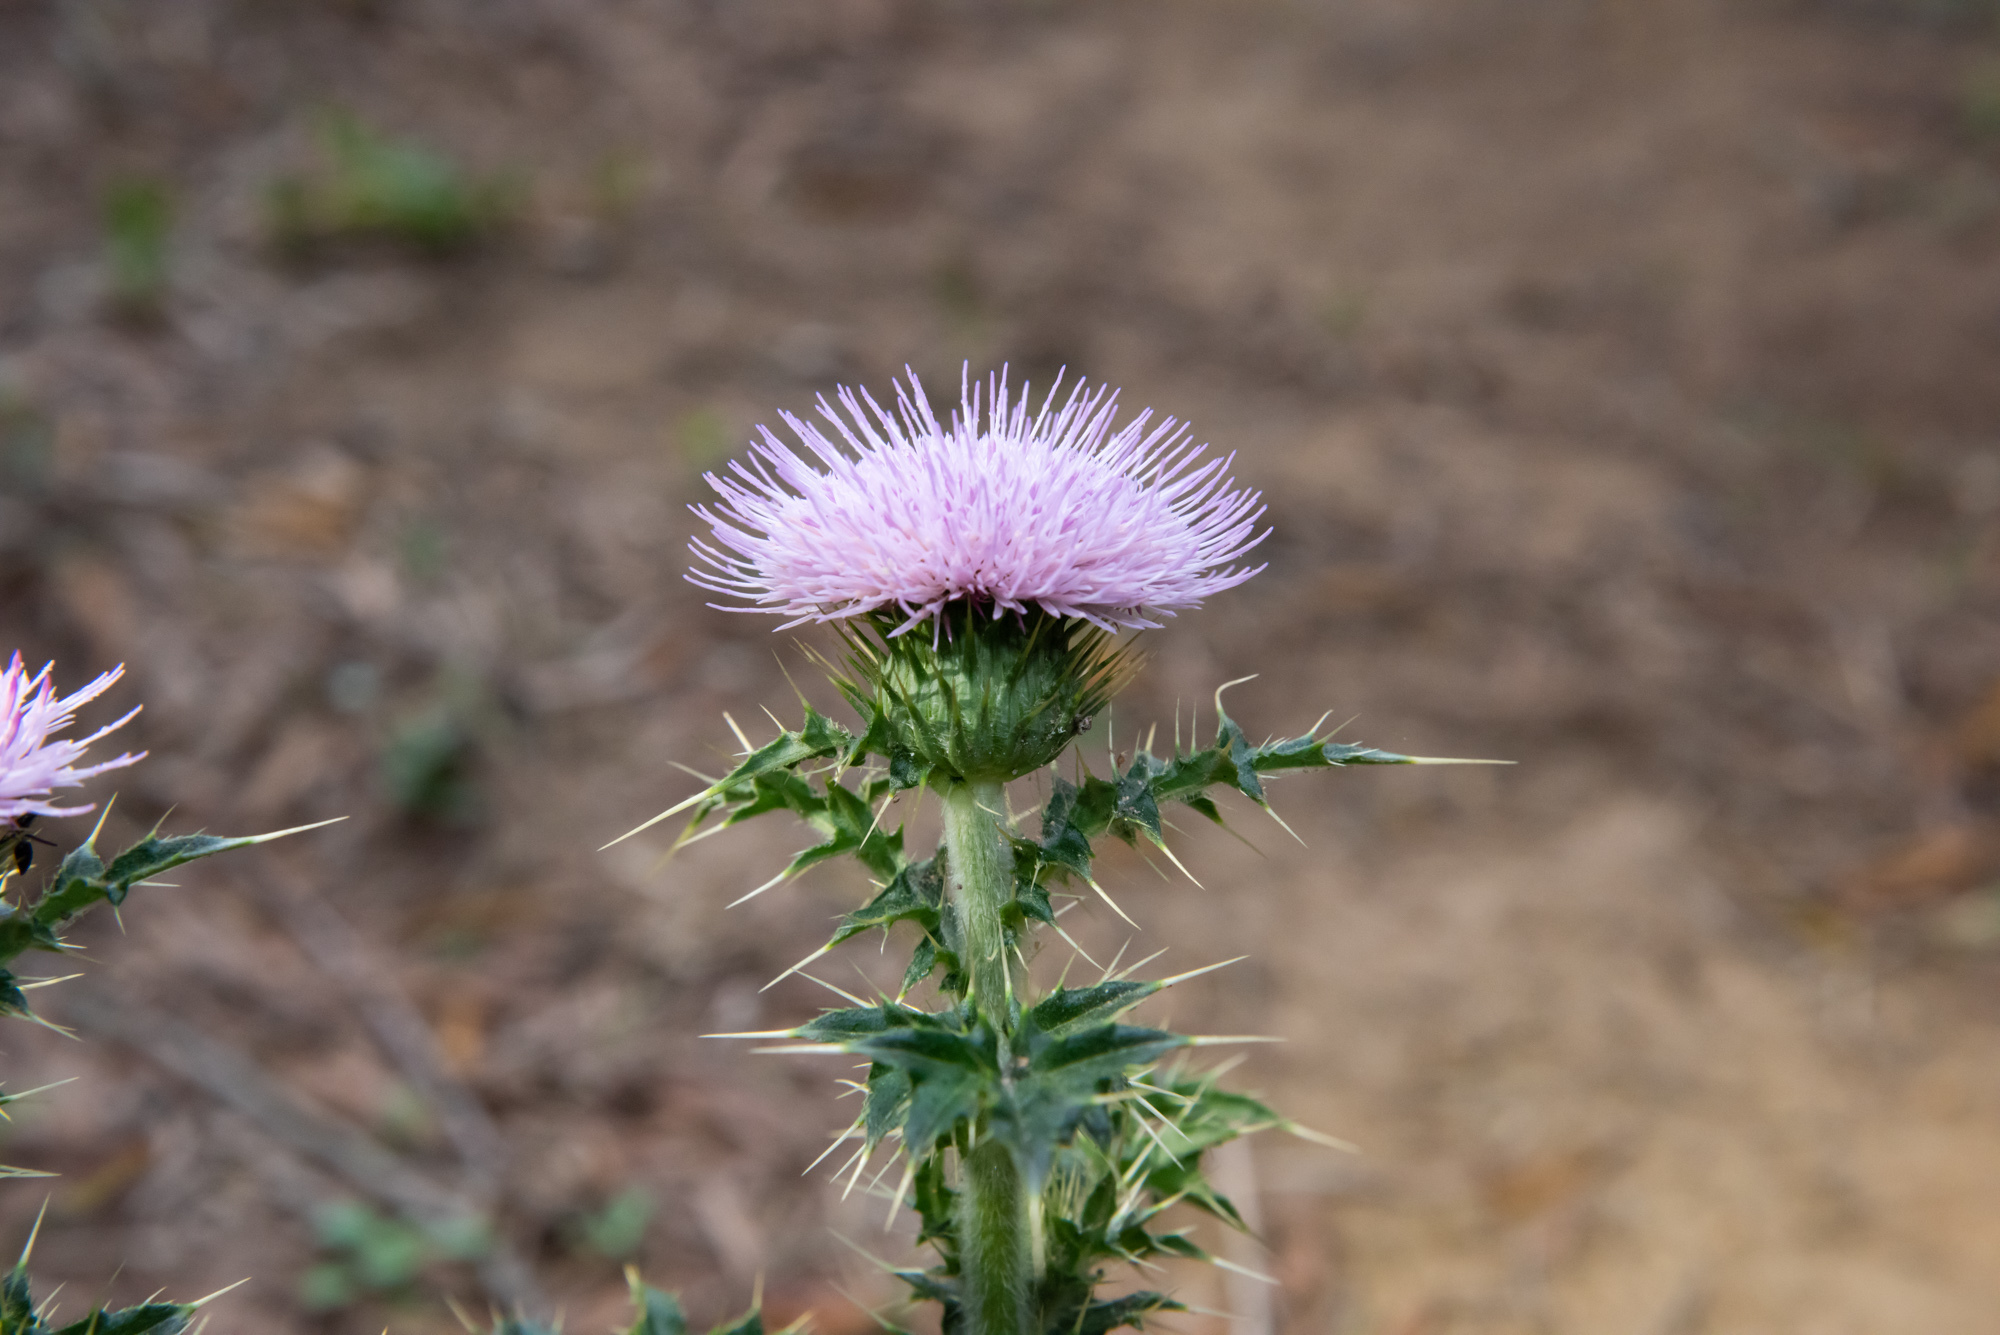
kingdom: Plantae
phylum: Tracheophyta
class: Magnoliopsida
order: Asterales
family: Asteraceae
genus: Cirsium
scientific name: Cirsium japonicum
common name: Japanese thistle
